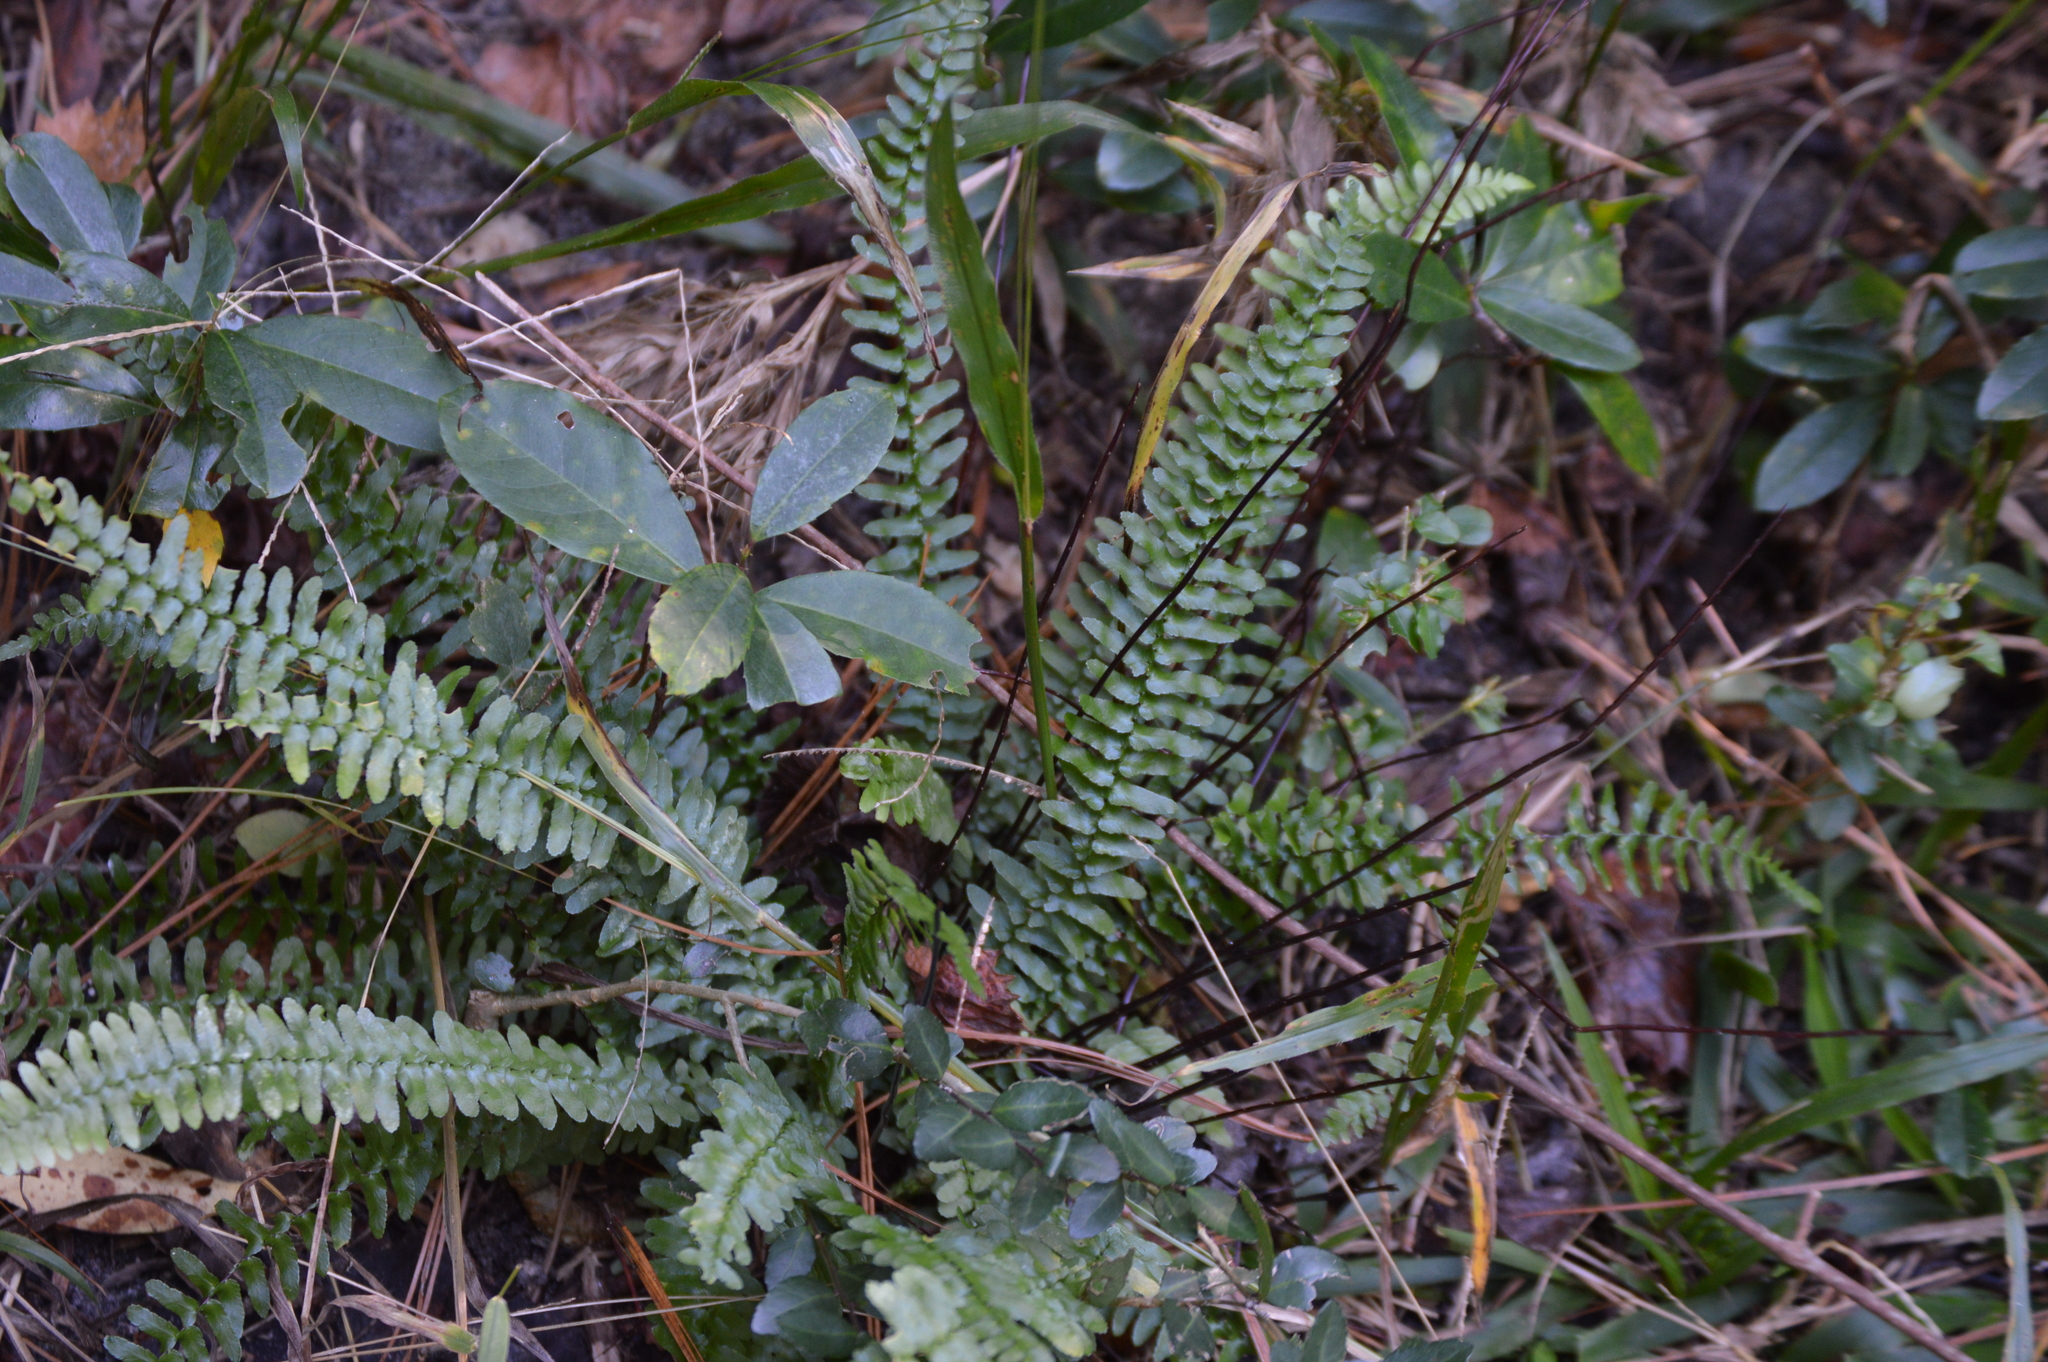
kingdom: Plantae
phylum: Tracheophyta
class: Polypodiopsida
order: Polypodiales
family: Aspleniaceae
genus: Asplenium
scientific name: Asplenium platyneuron
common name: Ebony spleenwort
